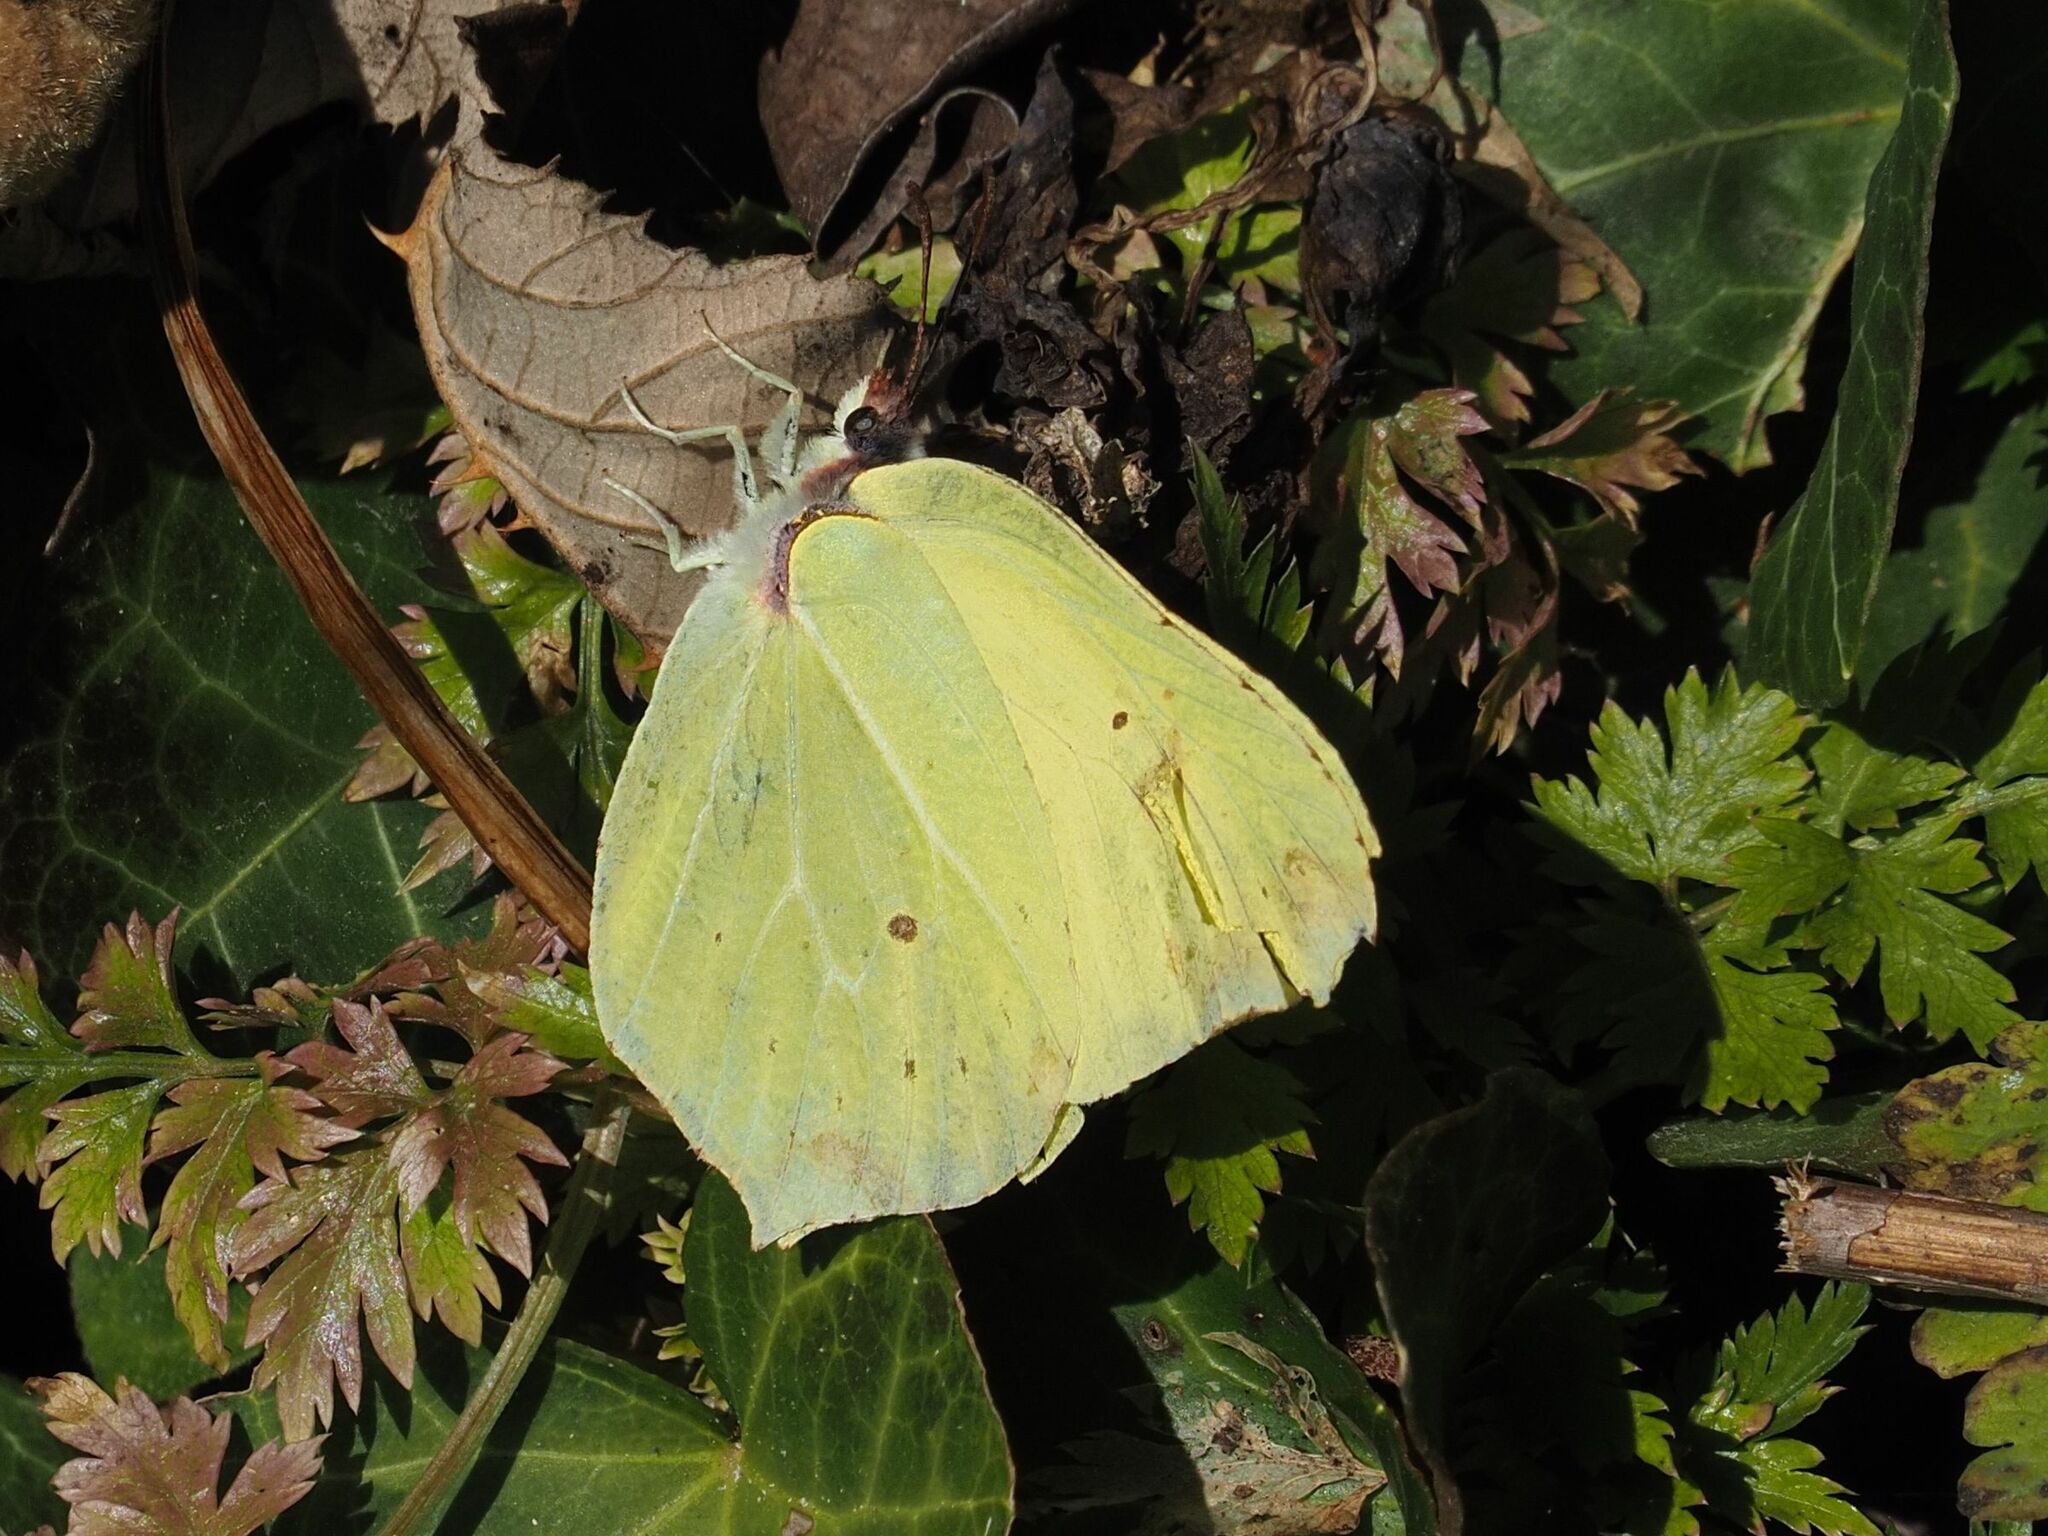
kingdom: Animalia
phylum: Arthropoda
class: Insecta
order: Lepidoptera
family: Pieridae
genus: Gonepteryx
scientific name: Gonepteryx rhamni
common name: Brimstone
